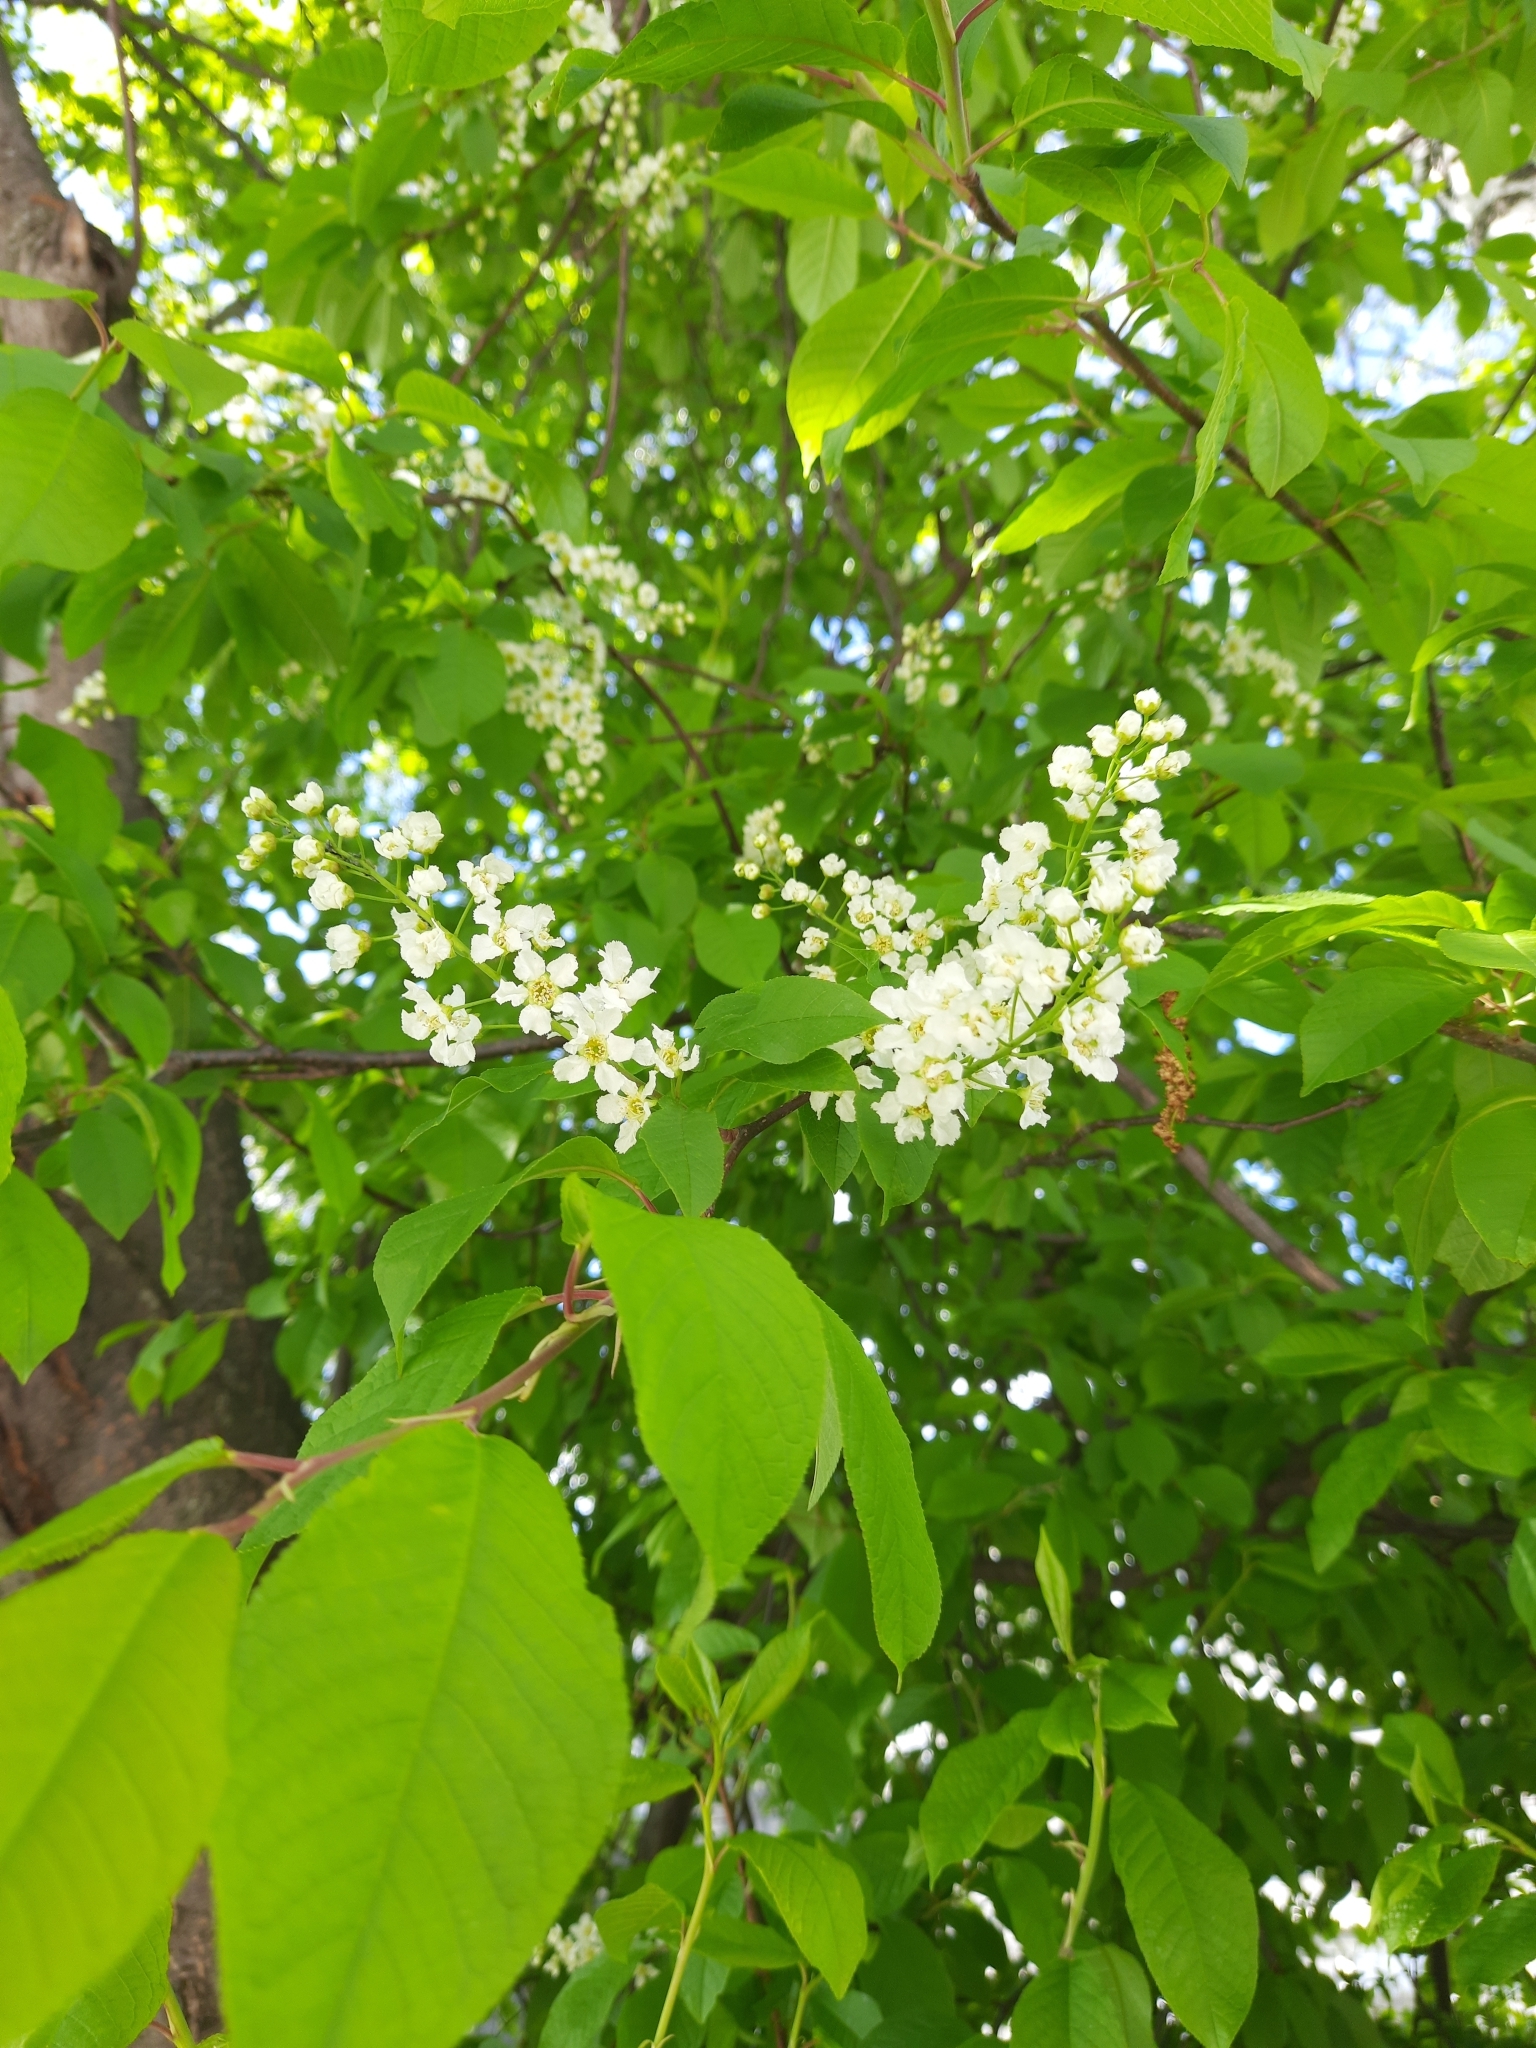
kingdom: Plantae
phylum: Tracheophyta
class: Magnoliopsida
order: Rosales
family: Rosaceae
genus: Prunus
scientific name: Prunus padus
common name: Bird cherry
